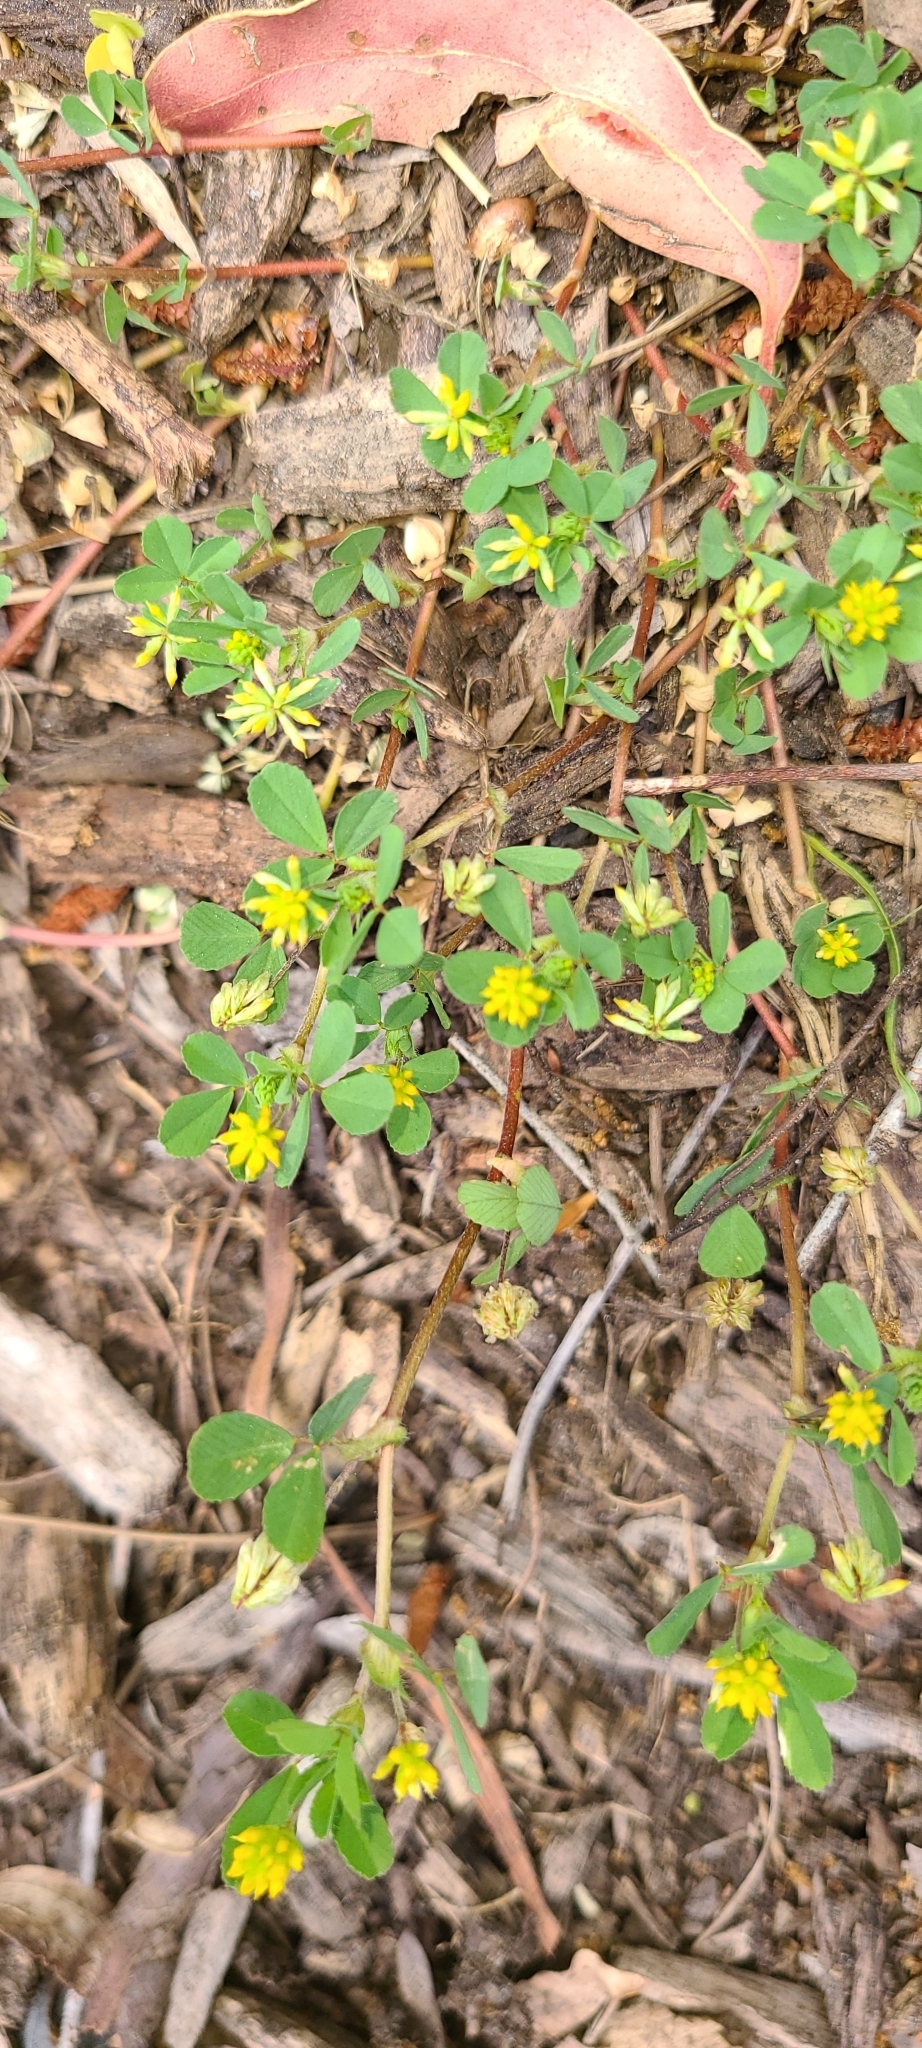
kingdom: Plantae
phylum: Tracheophyta
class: Magnoliopsida
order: Fabales
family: Fabaceae
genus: Trifolium
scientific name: Trifolium dubium
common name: Suckling clover
